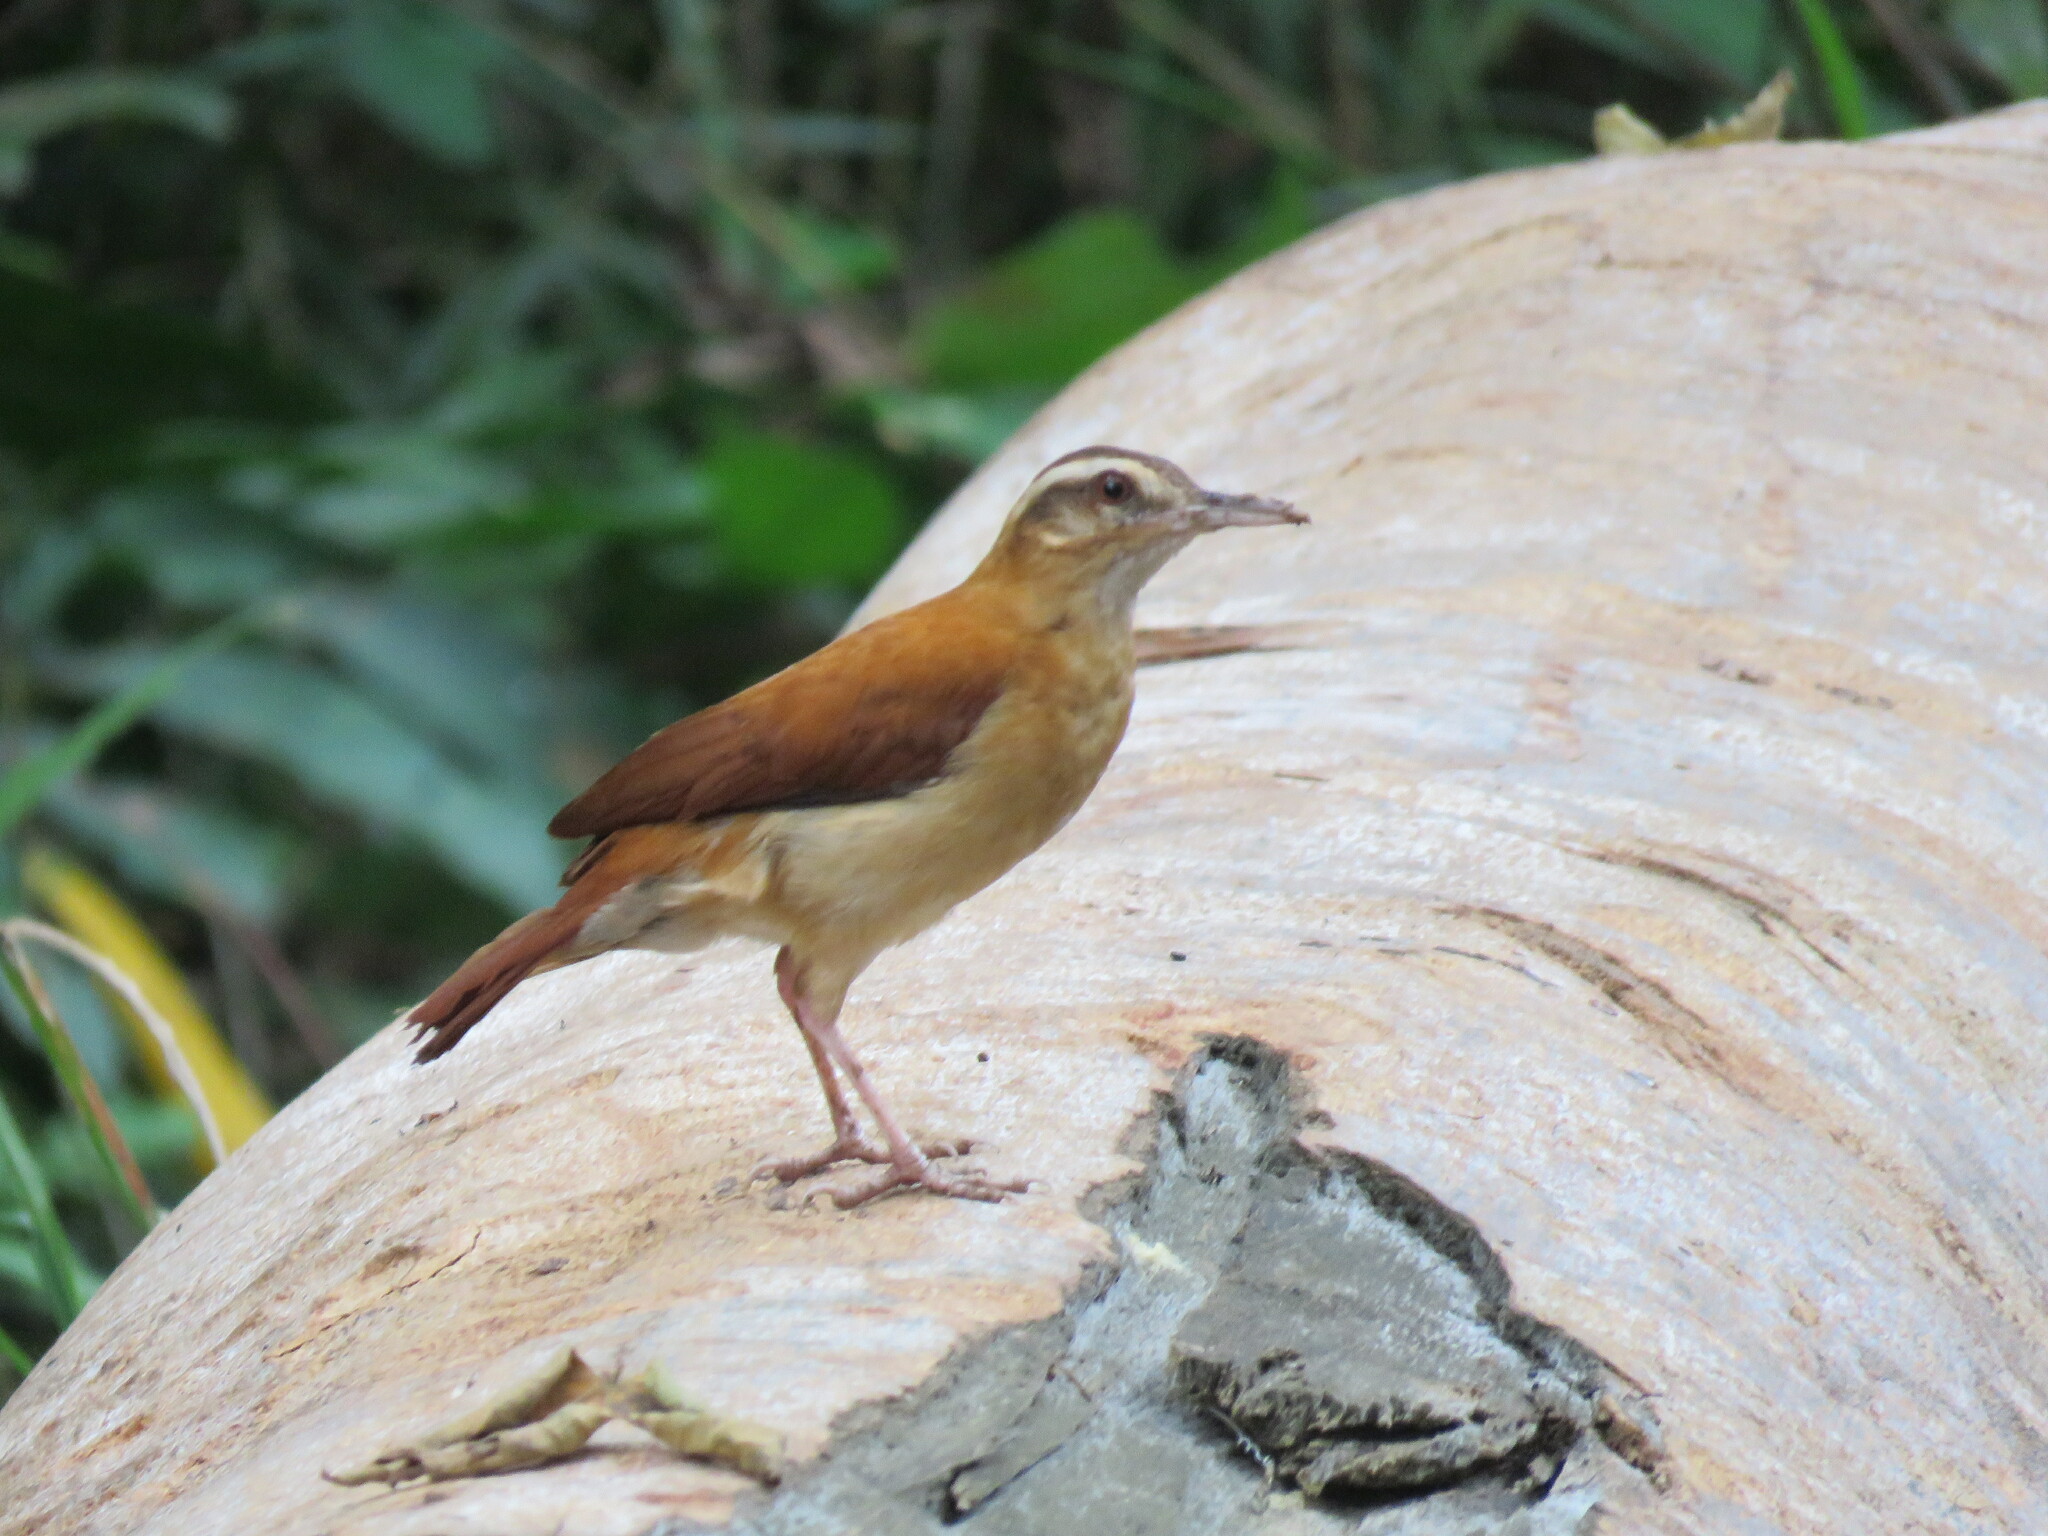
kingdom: Animalia
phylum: Chordata
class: Aves
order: Passeriformes
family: Furnariidae
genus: Furnarius
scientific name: Furnarius leucopus
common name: Pale-legged hornero
